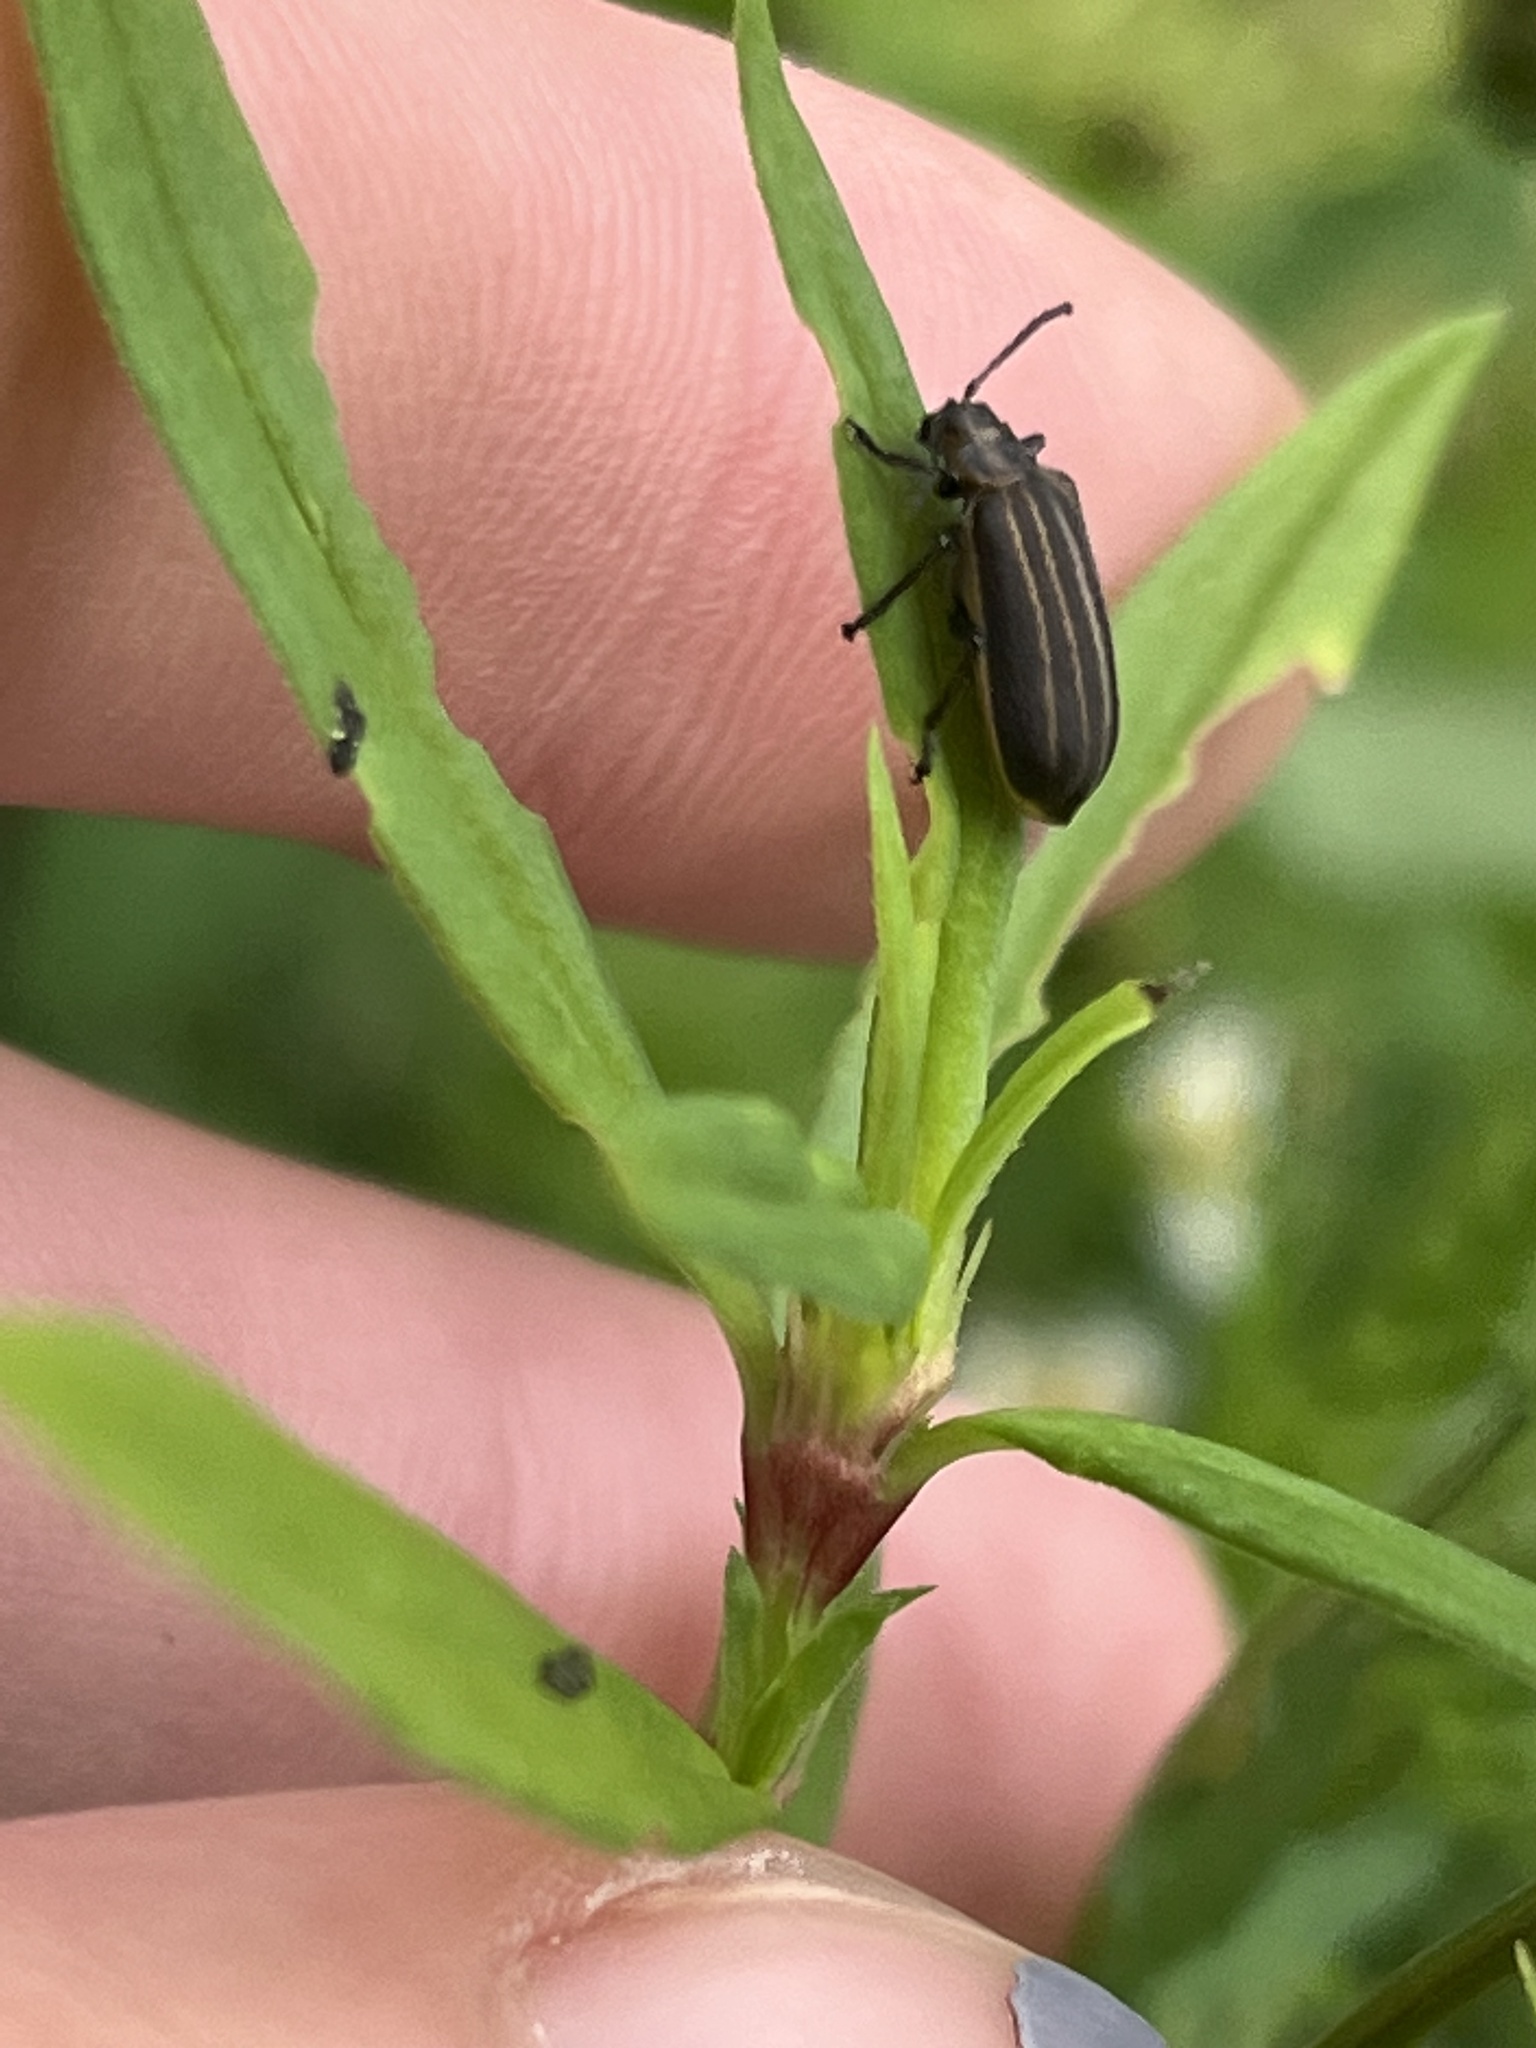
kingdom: Animalia
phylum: Arthropoda
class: Insecta
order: Coleoptera
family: Chrysomelidae
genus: Neolochmaea
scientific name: Neolochmaea dilatipennis
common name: Skeletonizing leaf beetle
